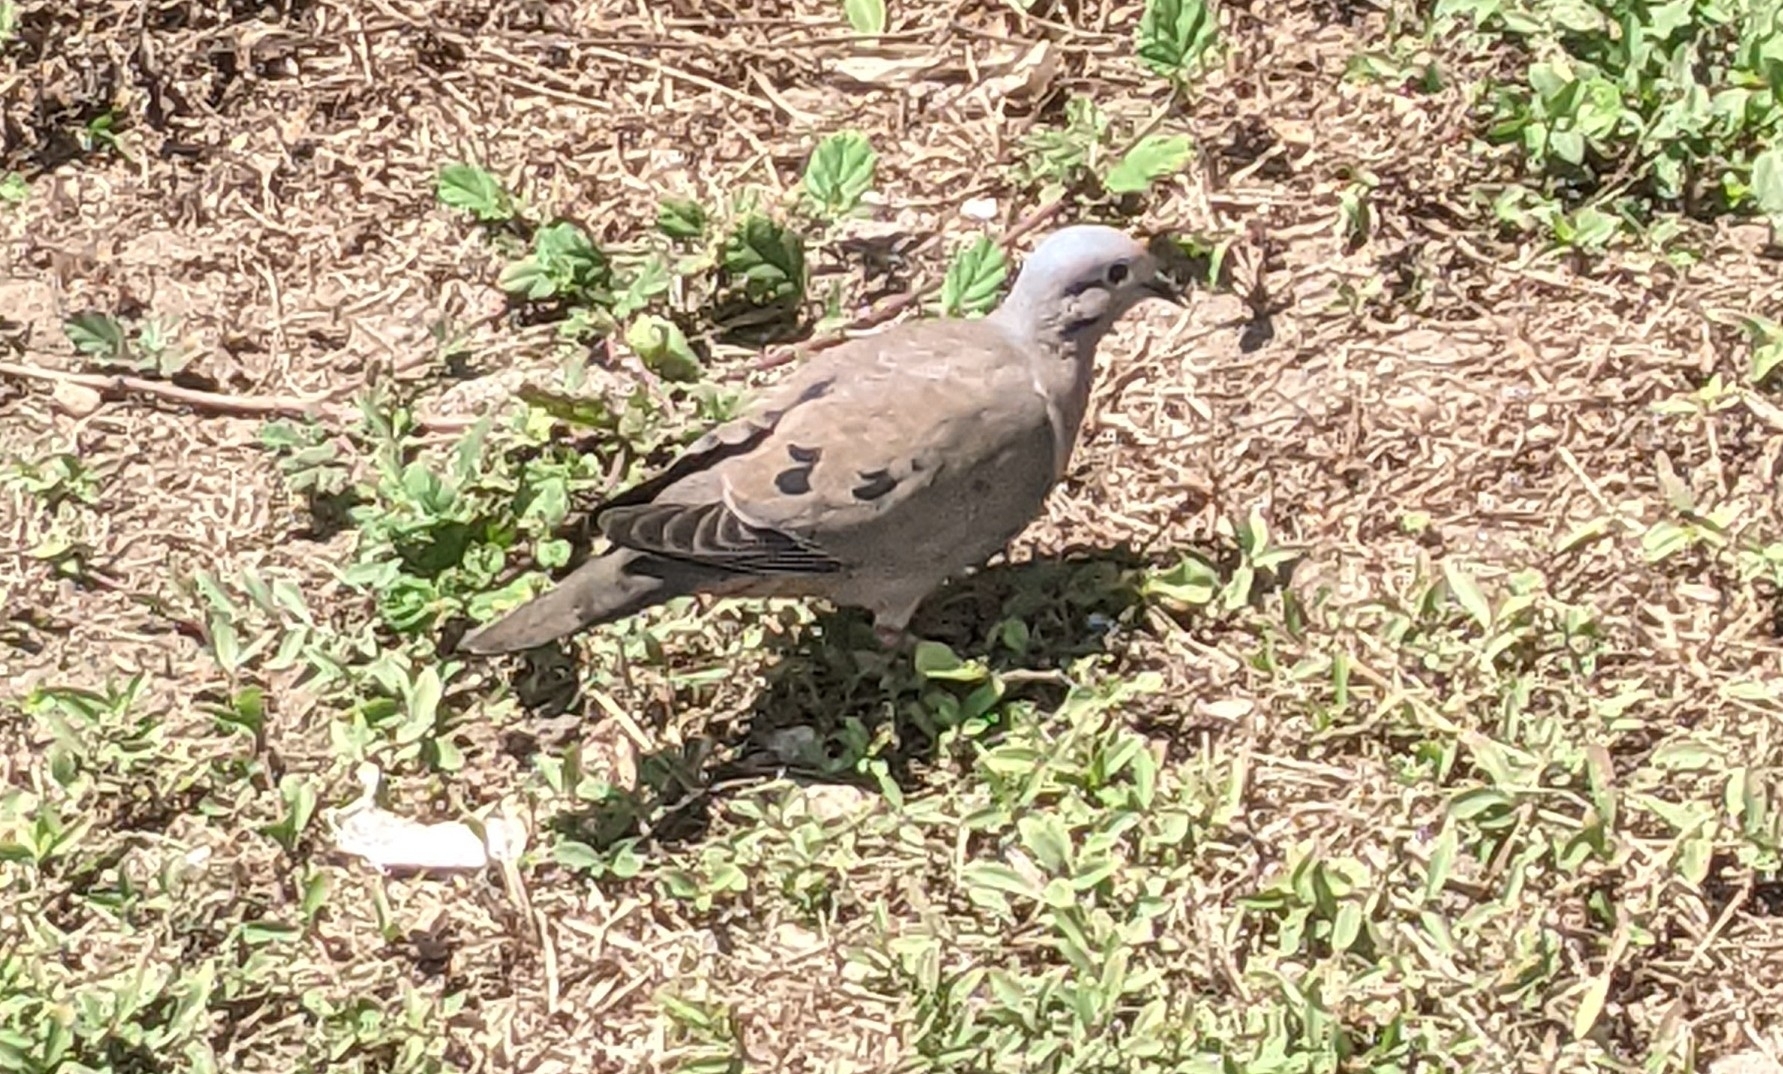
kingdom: Animalia
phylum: Chordata
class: Aves
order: Columbiformes
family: Columbidae
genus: Zenaida
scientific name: Zenaida auriculata
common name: Eared dove
